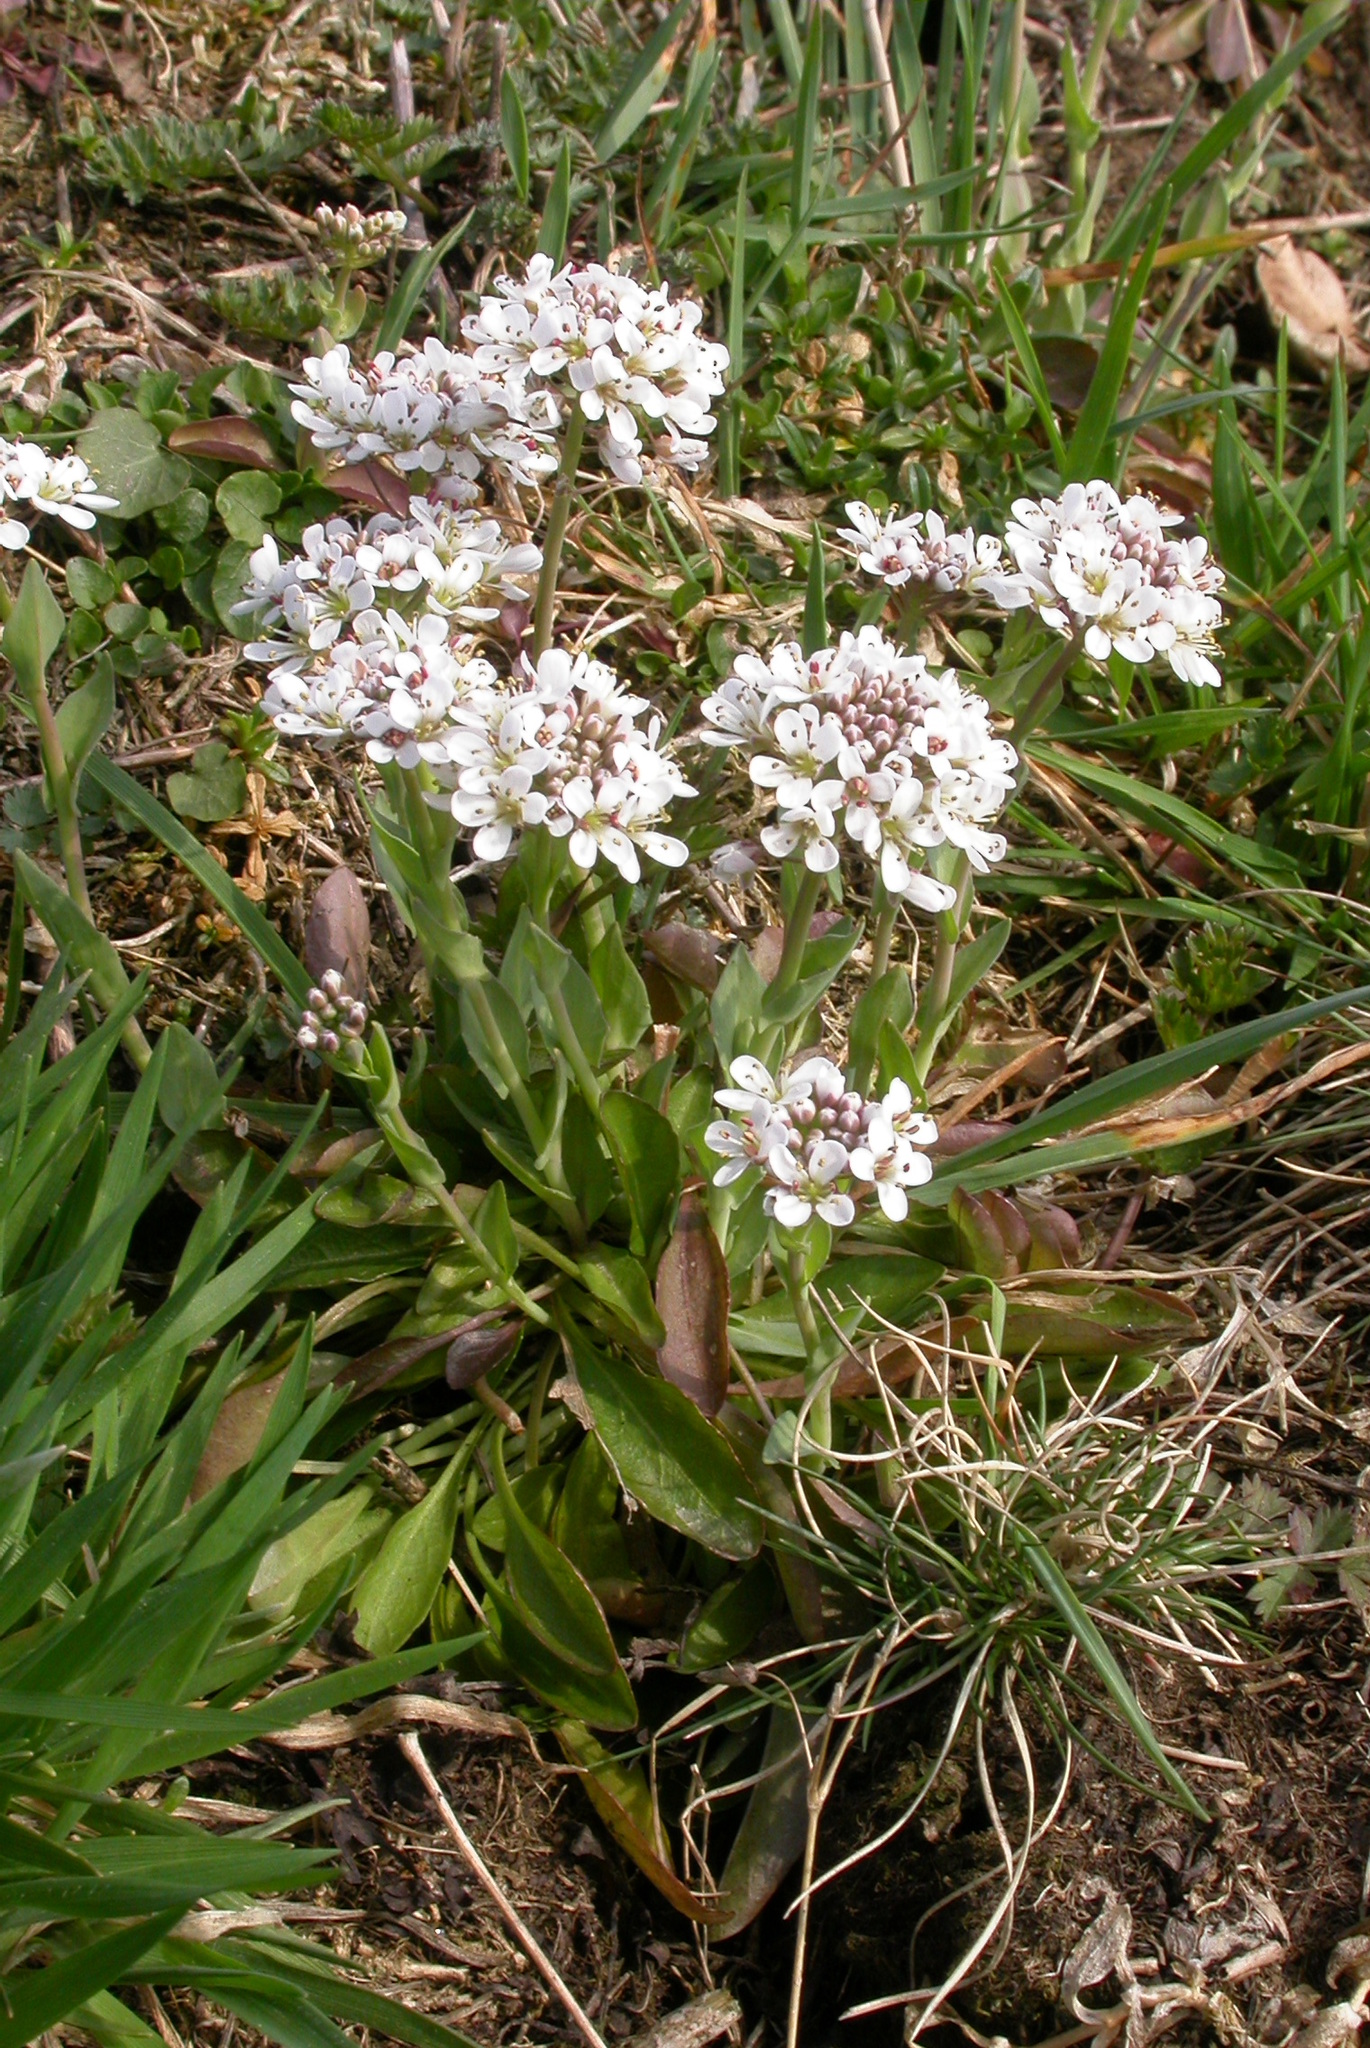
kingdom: Plantae
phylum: Tracheophyta
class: Magnoliopsida
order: Brassicales
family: Brassicaceae
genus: Noccaea
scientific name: Noccaea perfoliata
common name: Perfoliate pennycress
